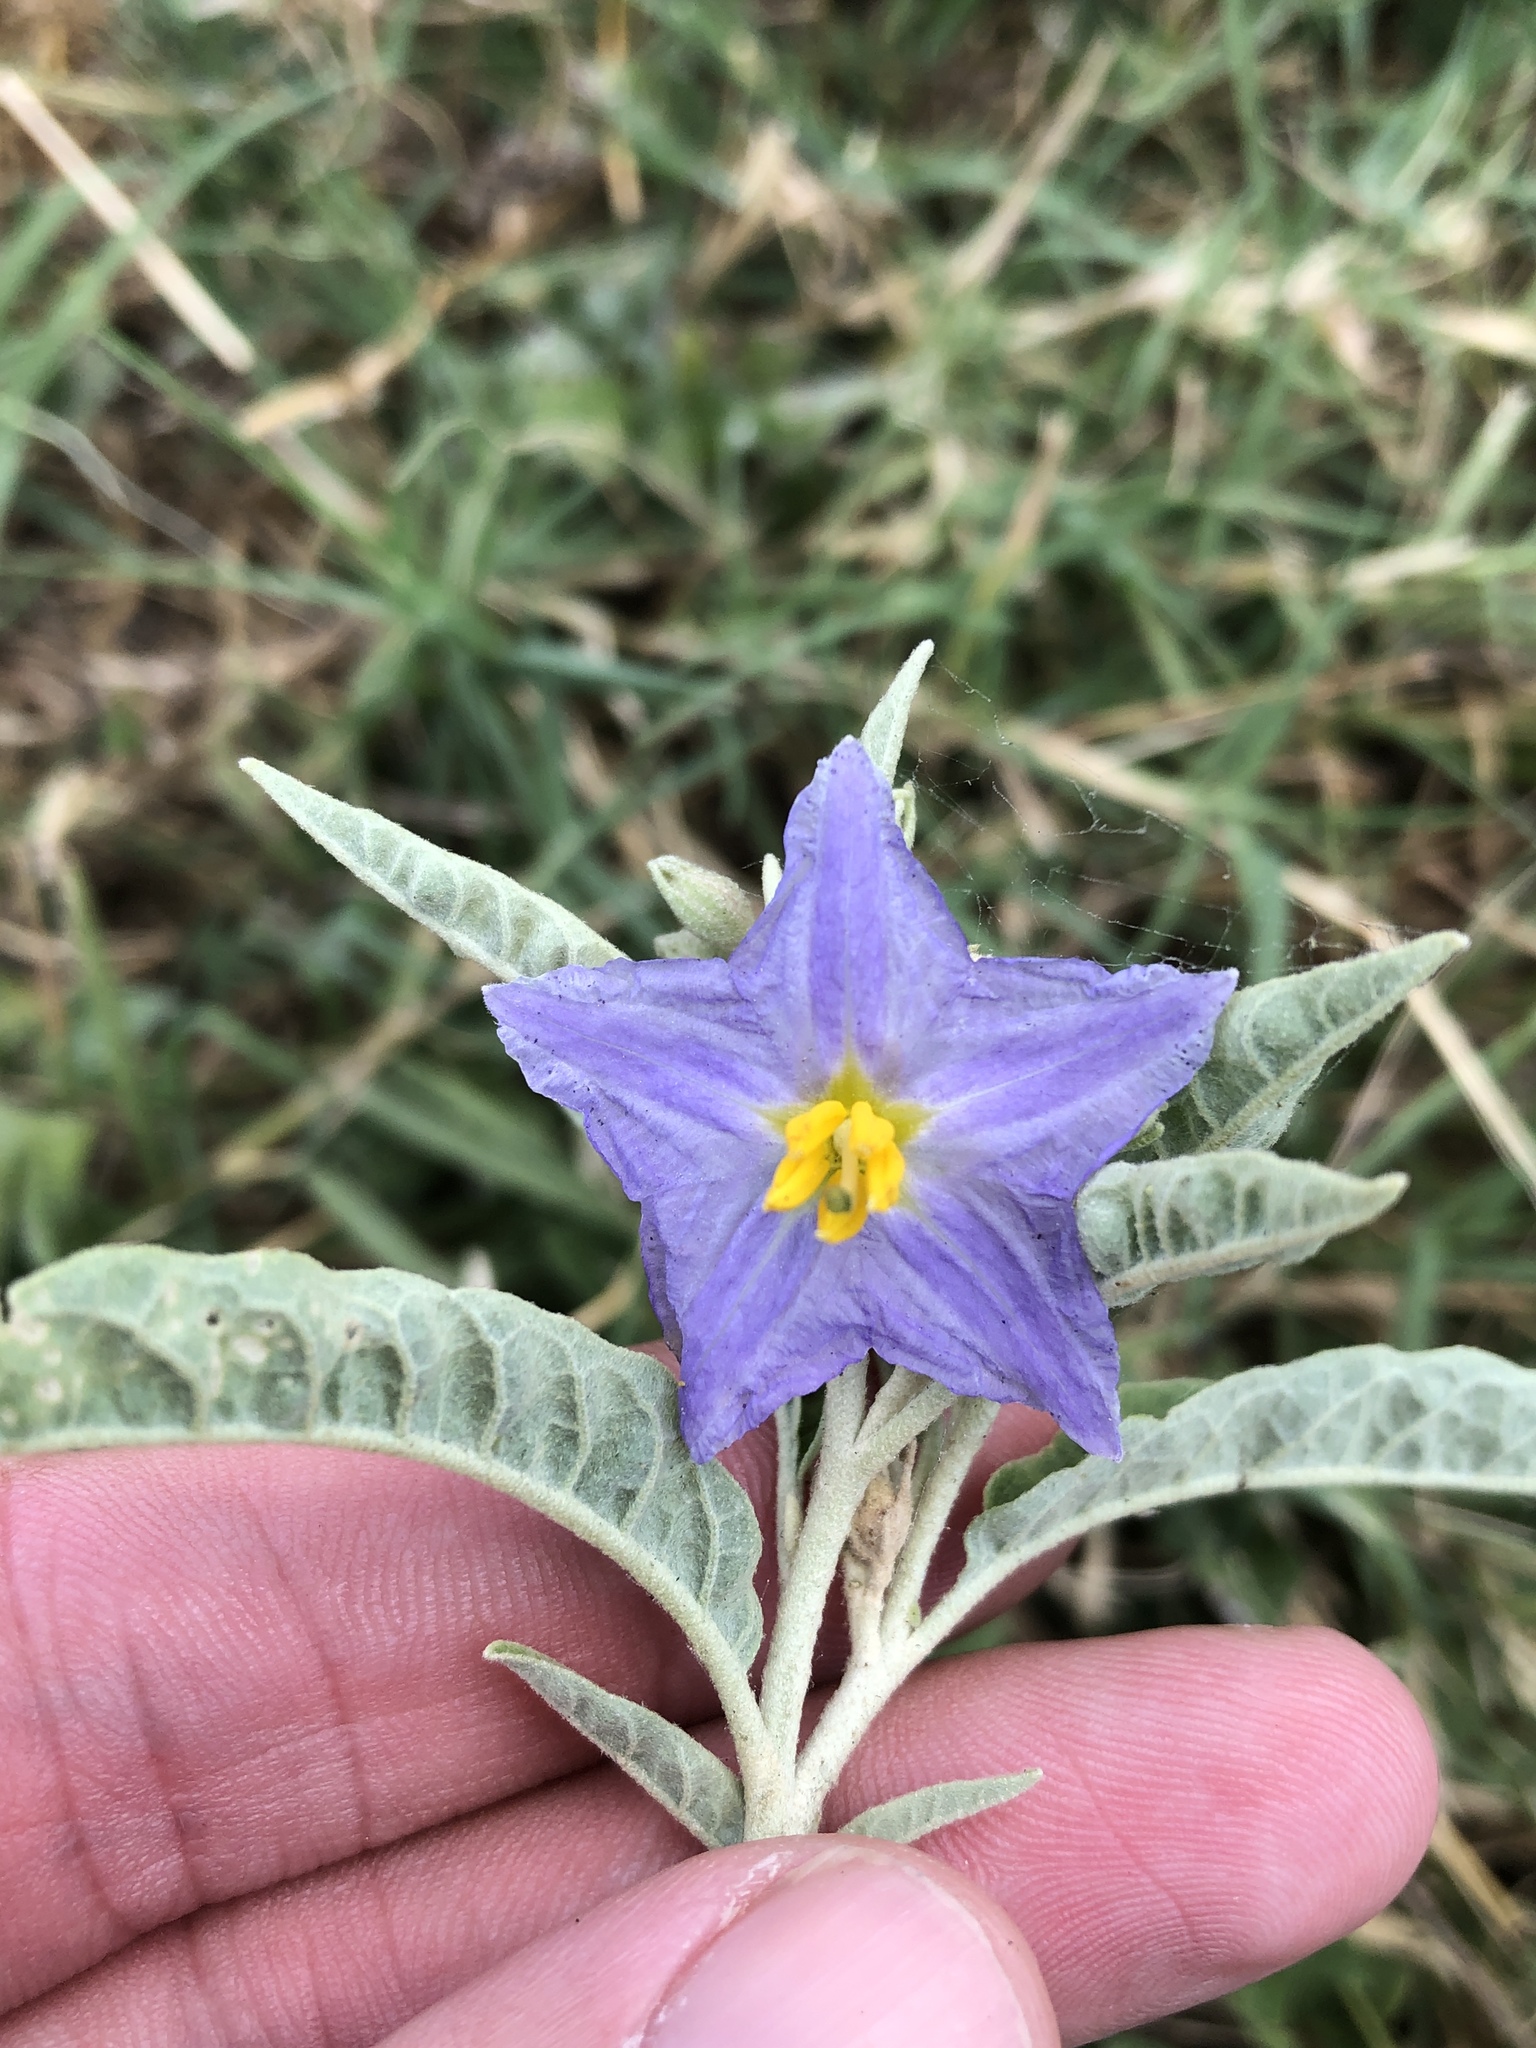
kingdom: Plantae
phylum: Tracheophyta
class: Magnoliopsida
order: Solanales
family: Solanaceae
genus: Solanum
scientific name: Solanum elaeagnifolium
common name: Silverleaf nightshade
